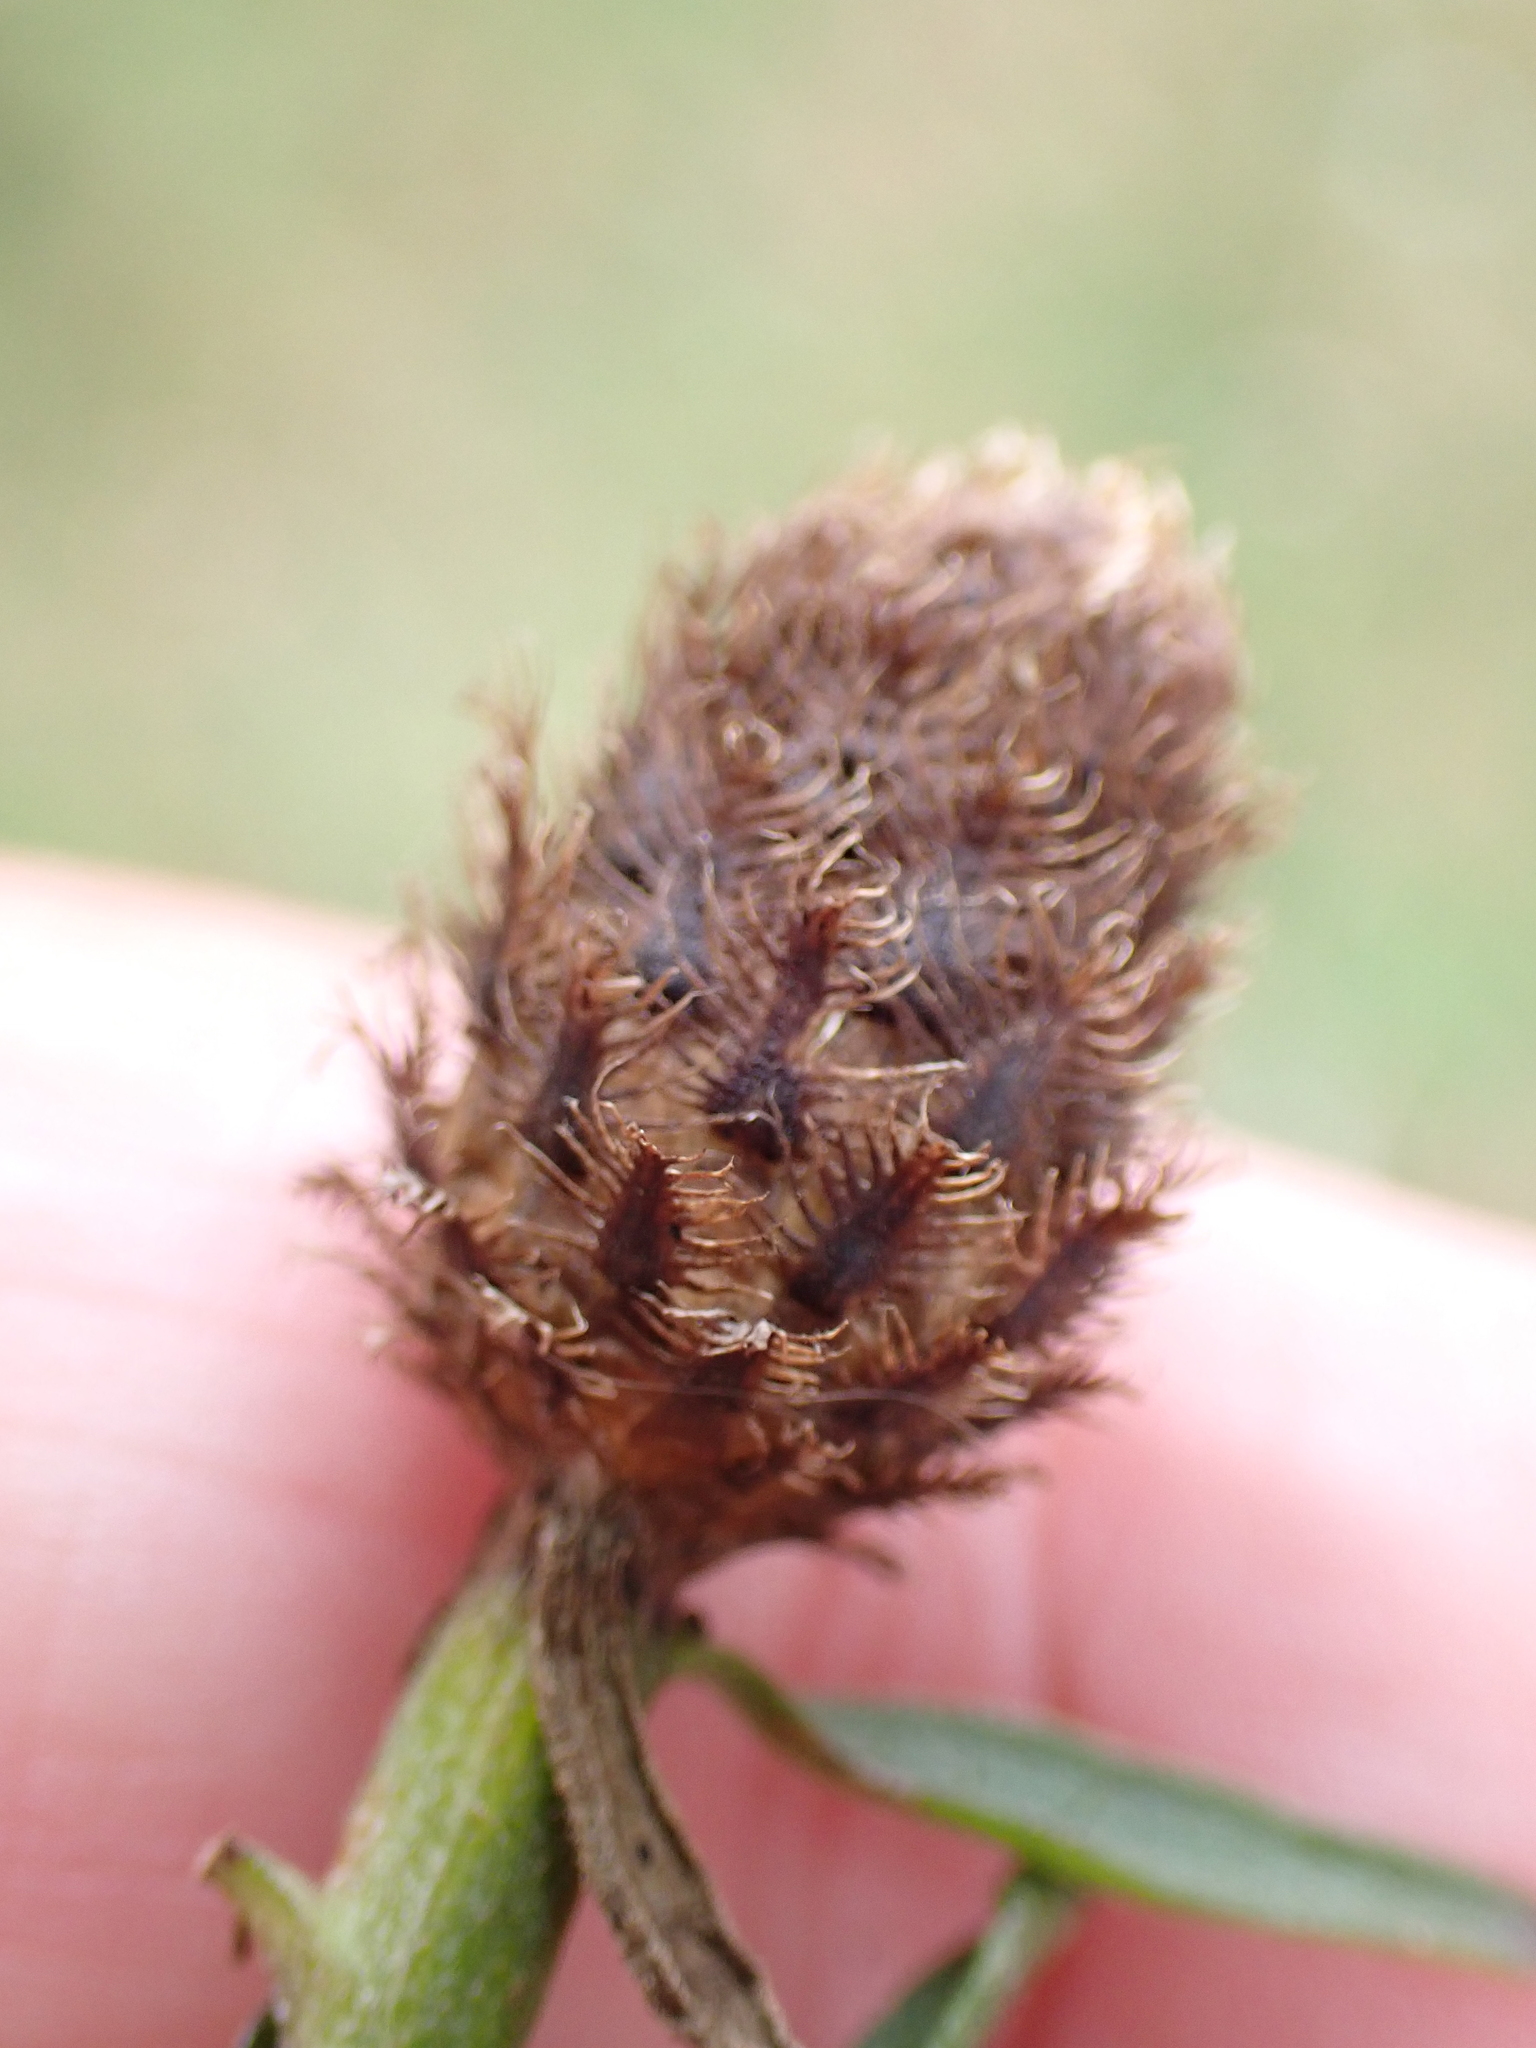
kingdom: Plantae
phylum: Tracheophyta
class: Magnoliopsida
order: Asterales
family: Asteraceae
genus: Centaurea
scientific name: Centaurea debeauxii
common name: Slender knapweed
